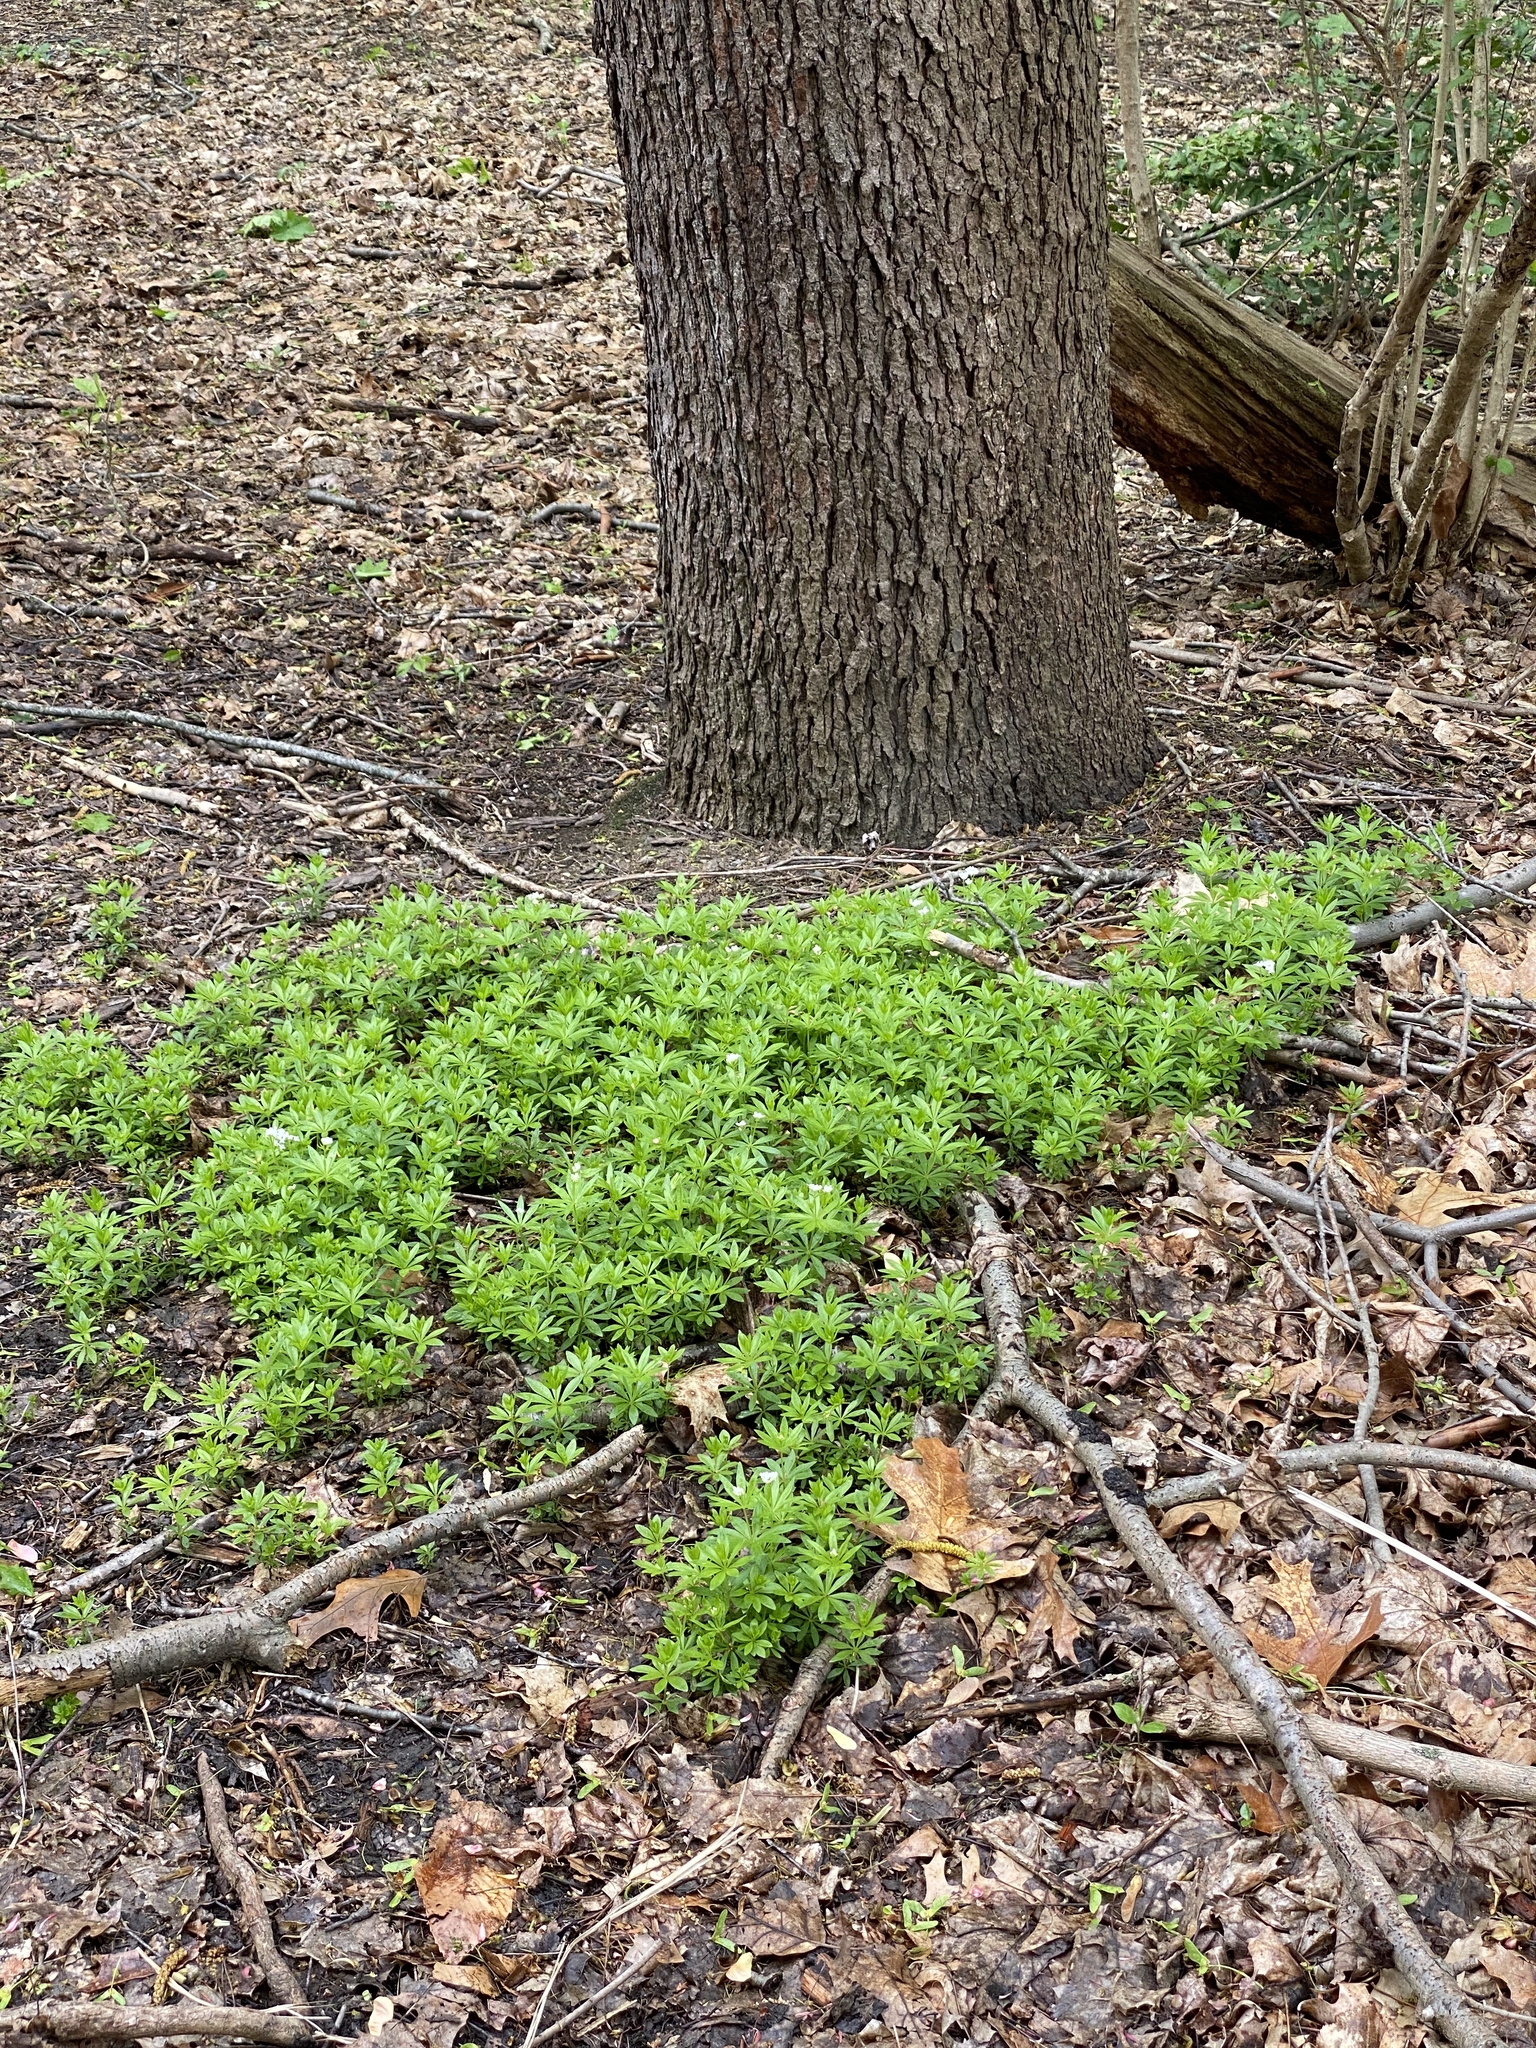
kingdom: Plantae
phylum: Tracheophyta
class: Magnoliopsida
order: Gentianales
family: Rubiaceae
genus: Galium
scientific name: Galium odoratum
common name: Sweet woodruff
